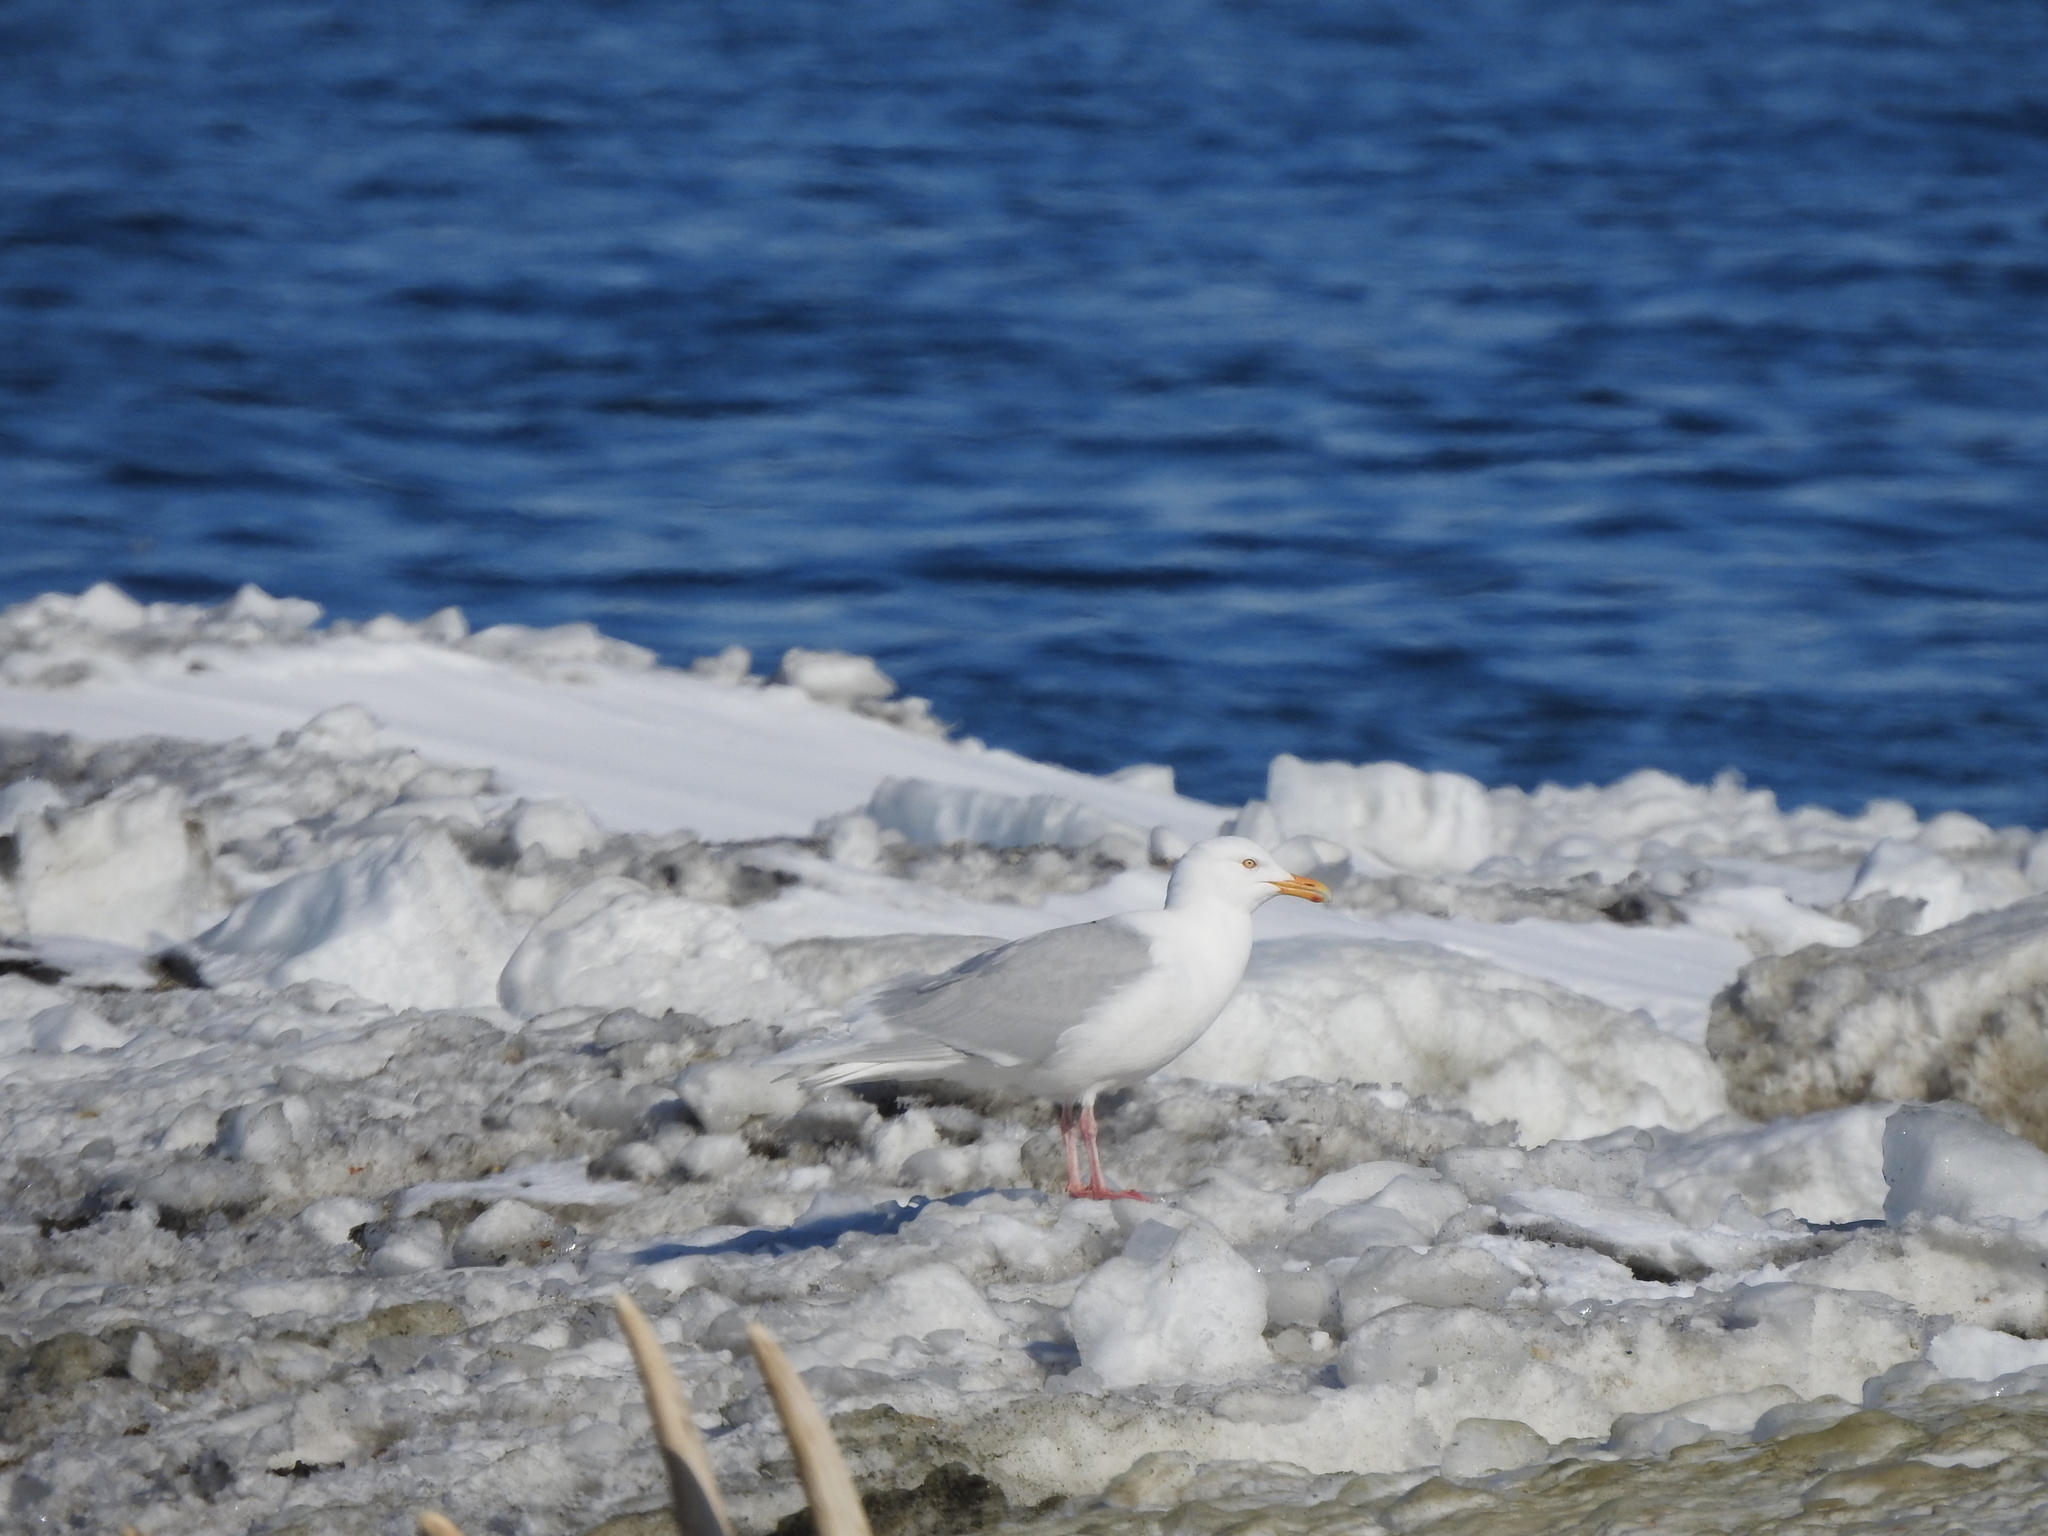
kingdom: Animalia
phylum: Chordata
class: Aves
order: Charadriiformes
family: Laridae
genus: Larus
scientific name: Larus hyperboreus
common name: Glaucous gull
